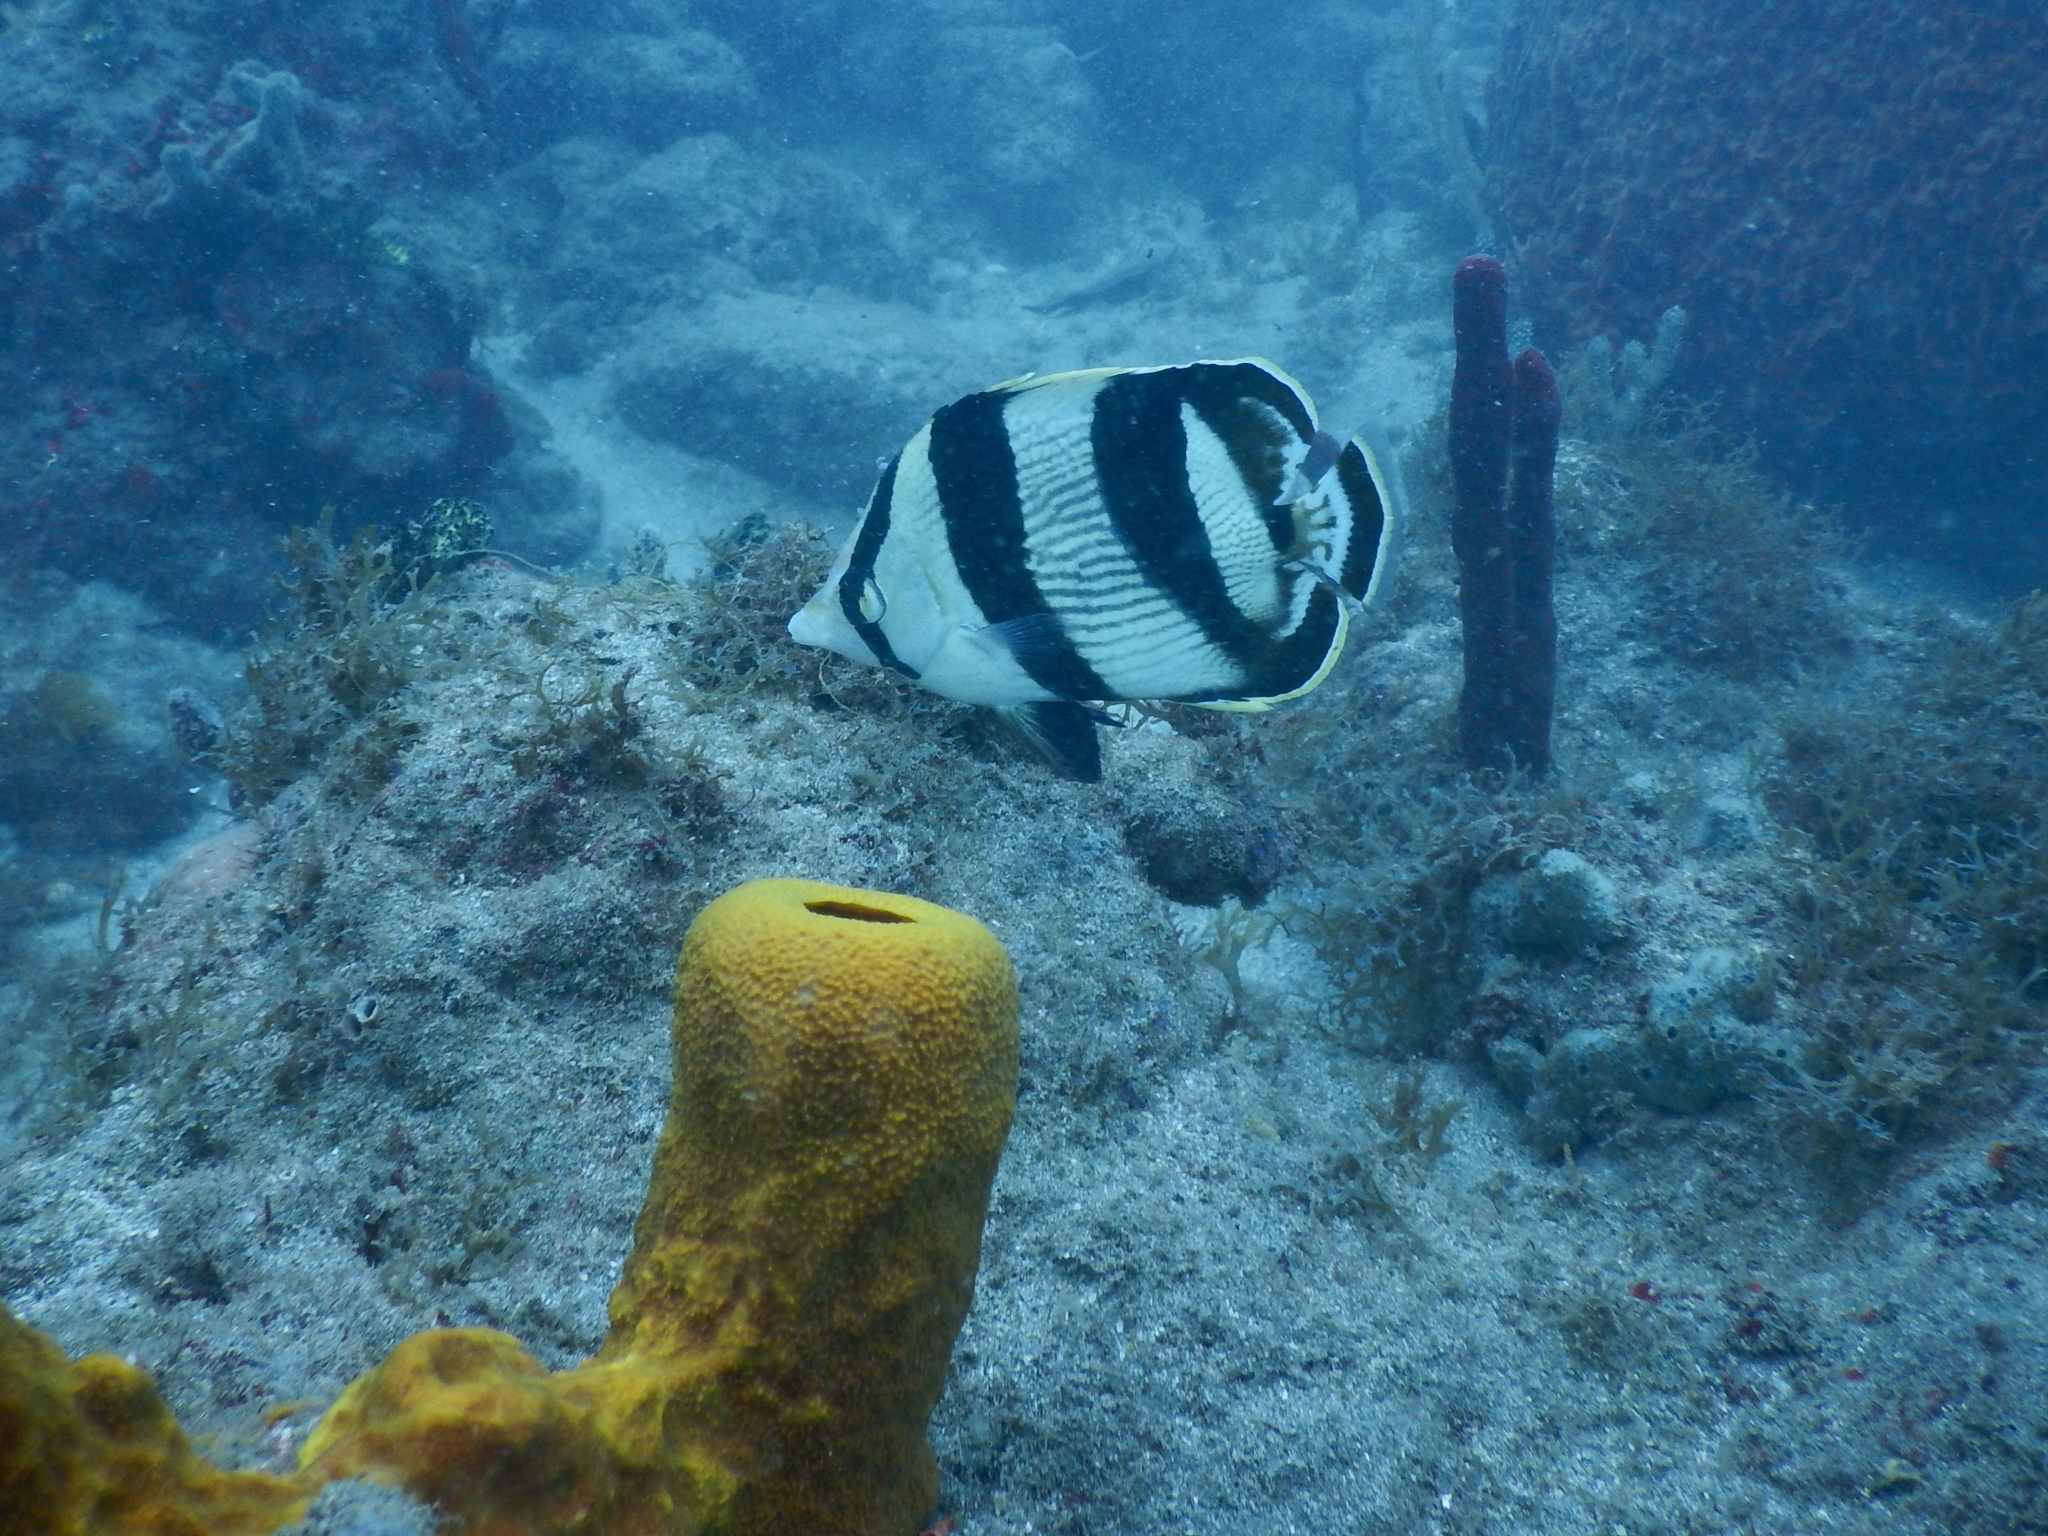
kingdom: Animalia
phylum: Chordata
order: Perciformes
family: Chaetodontidae
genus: Chaetodon
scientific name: Chaetodon striatus
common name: Banded butterflyfish
